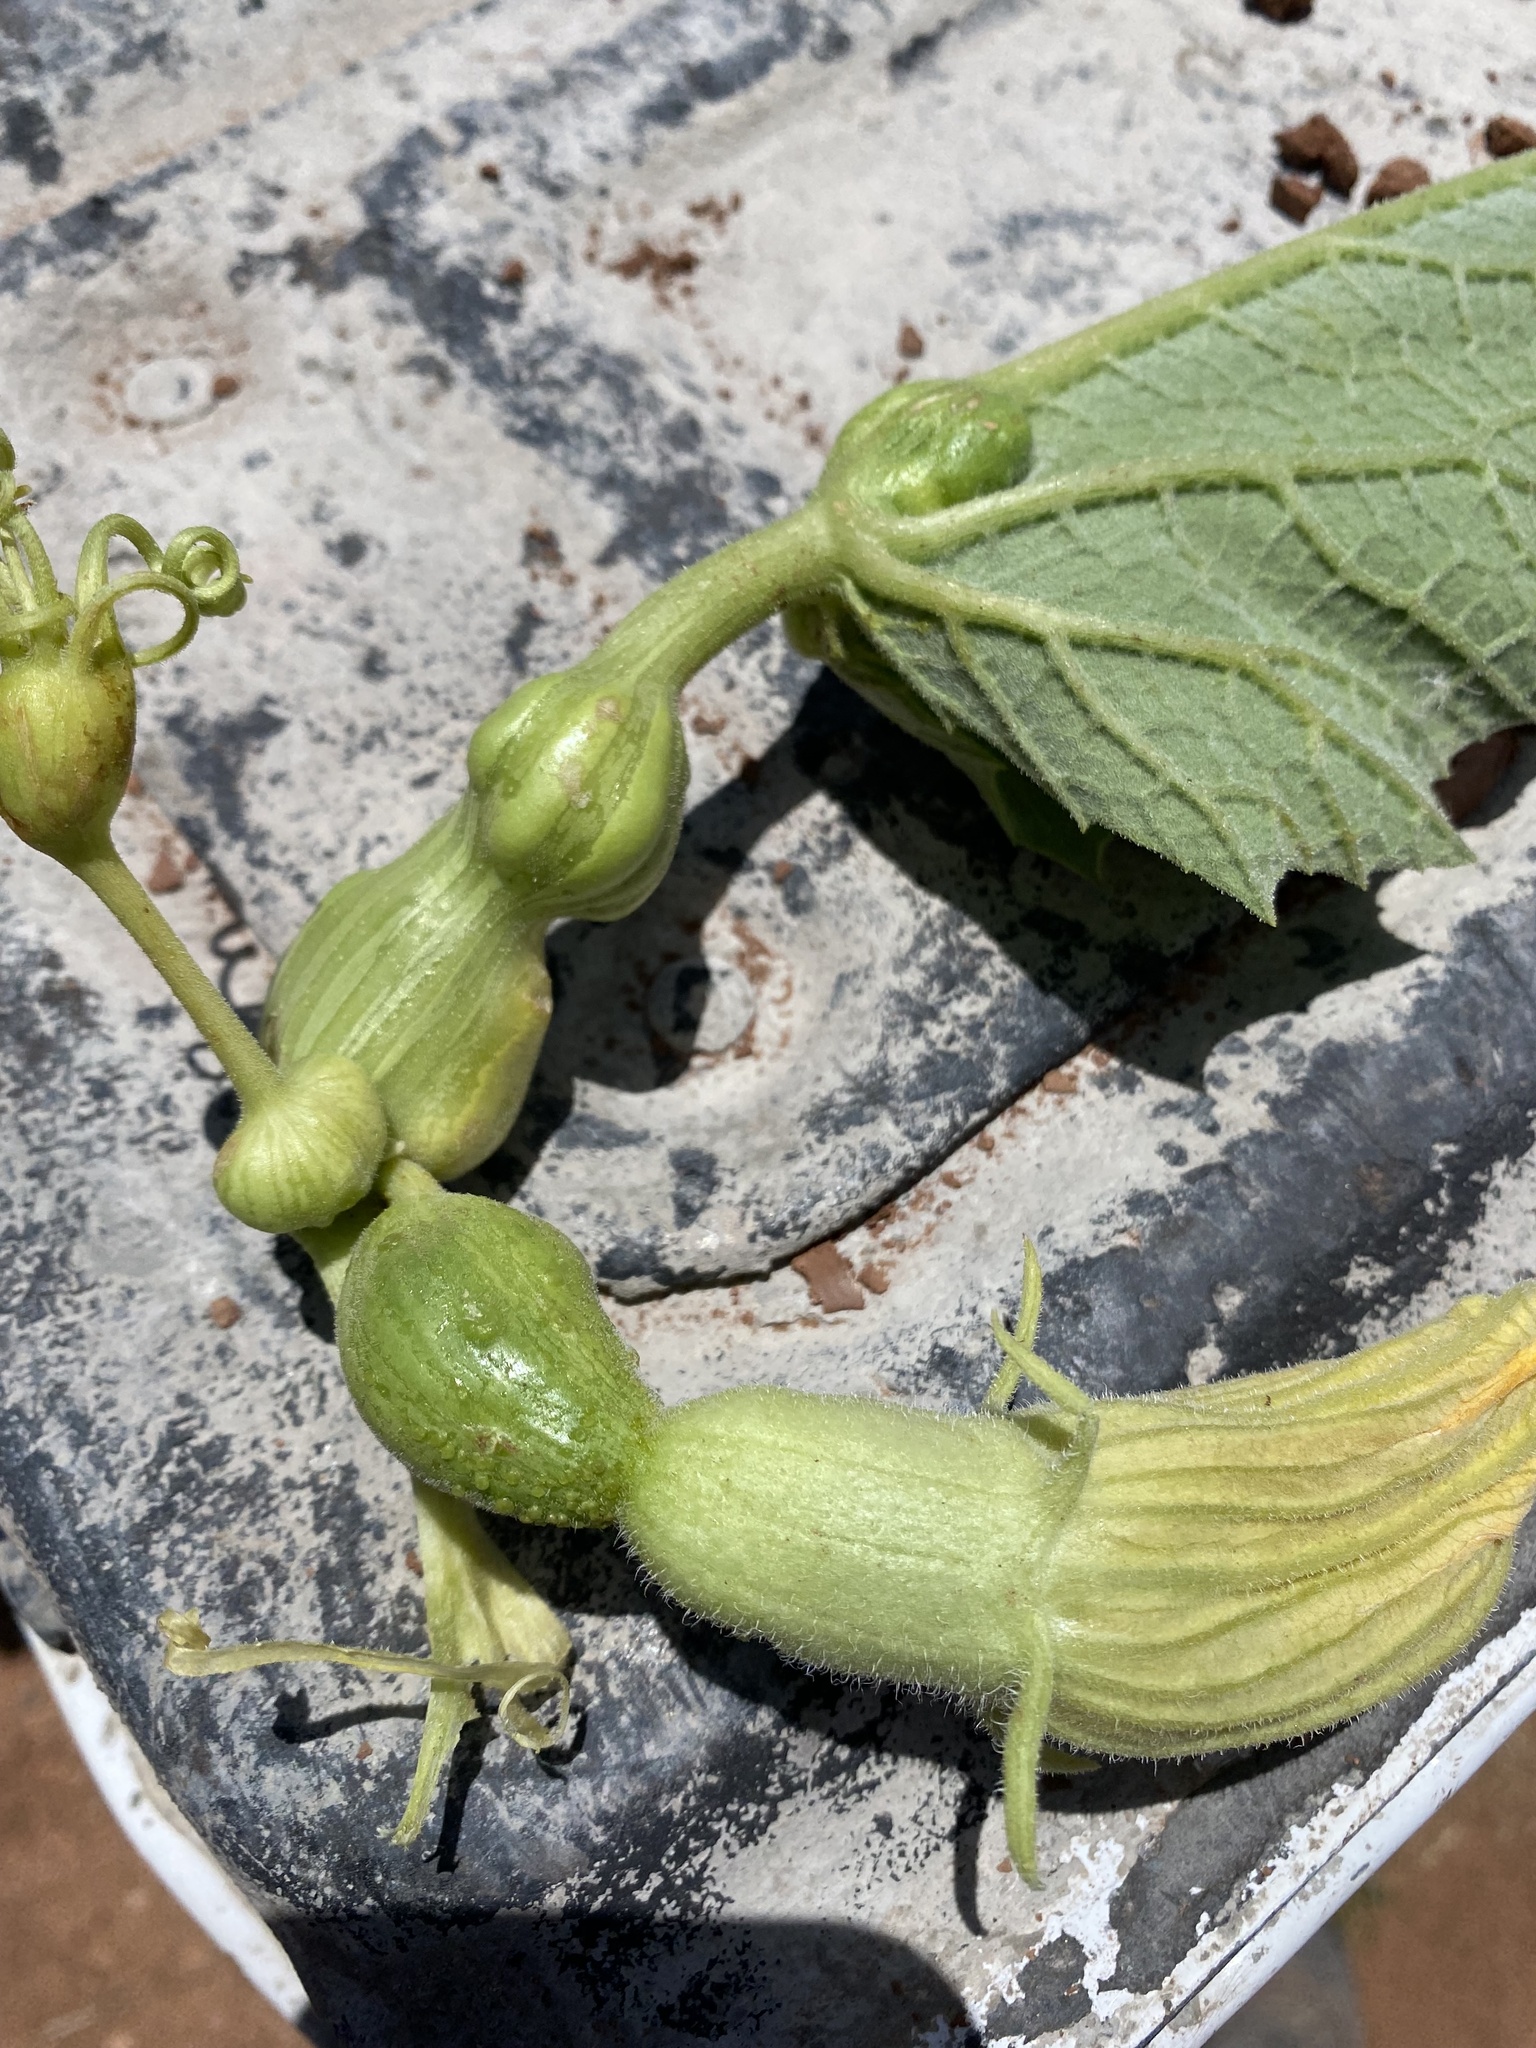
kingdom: Animalia
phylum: Arthropoda
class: Insecta
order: Lepidoptera
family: Sesiidae
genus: Eichlinia
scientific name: Eichlinia snowii
